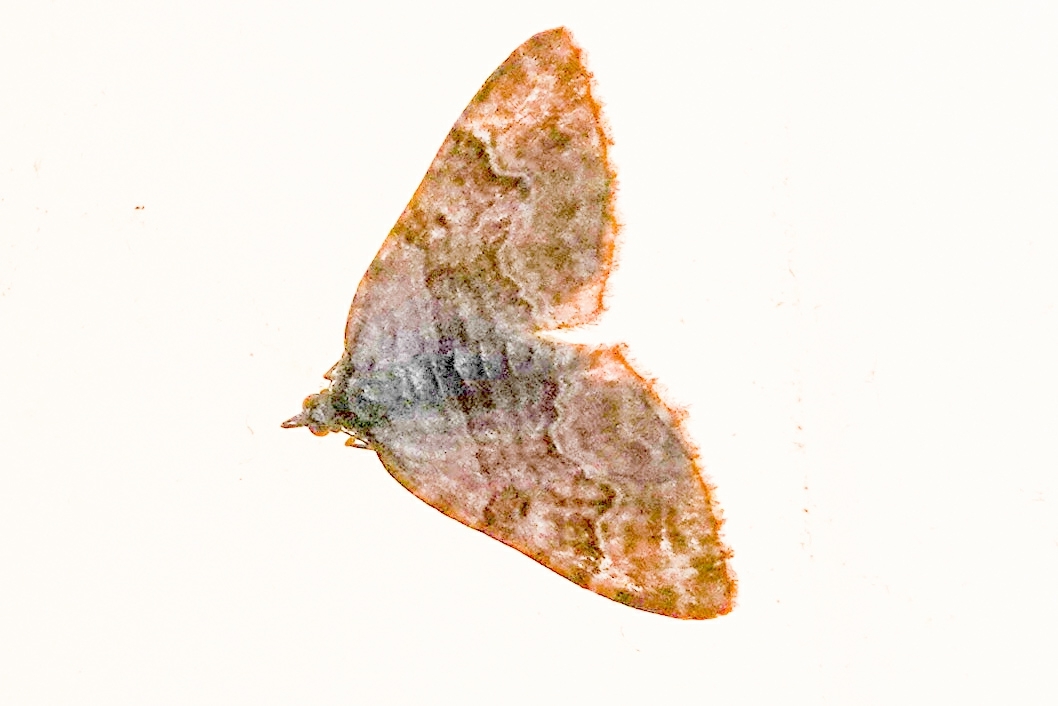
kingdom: Animalia
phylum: Arthropoda
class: Insecta
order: Lepidoptera
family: Geometridae
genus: Xanthorhoe
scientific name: Xanthorhoe quadrifasiata
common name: Large twin-spot carpet
